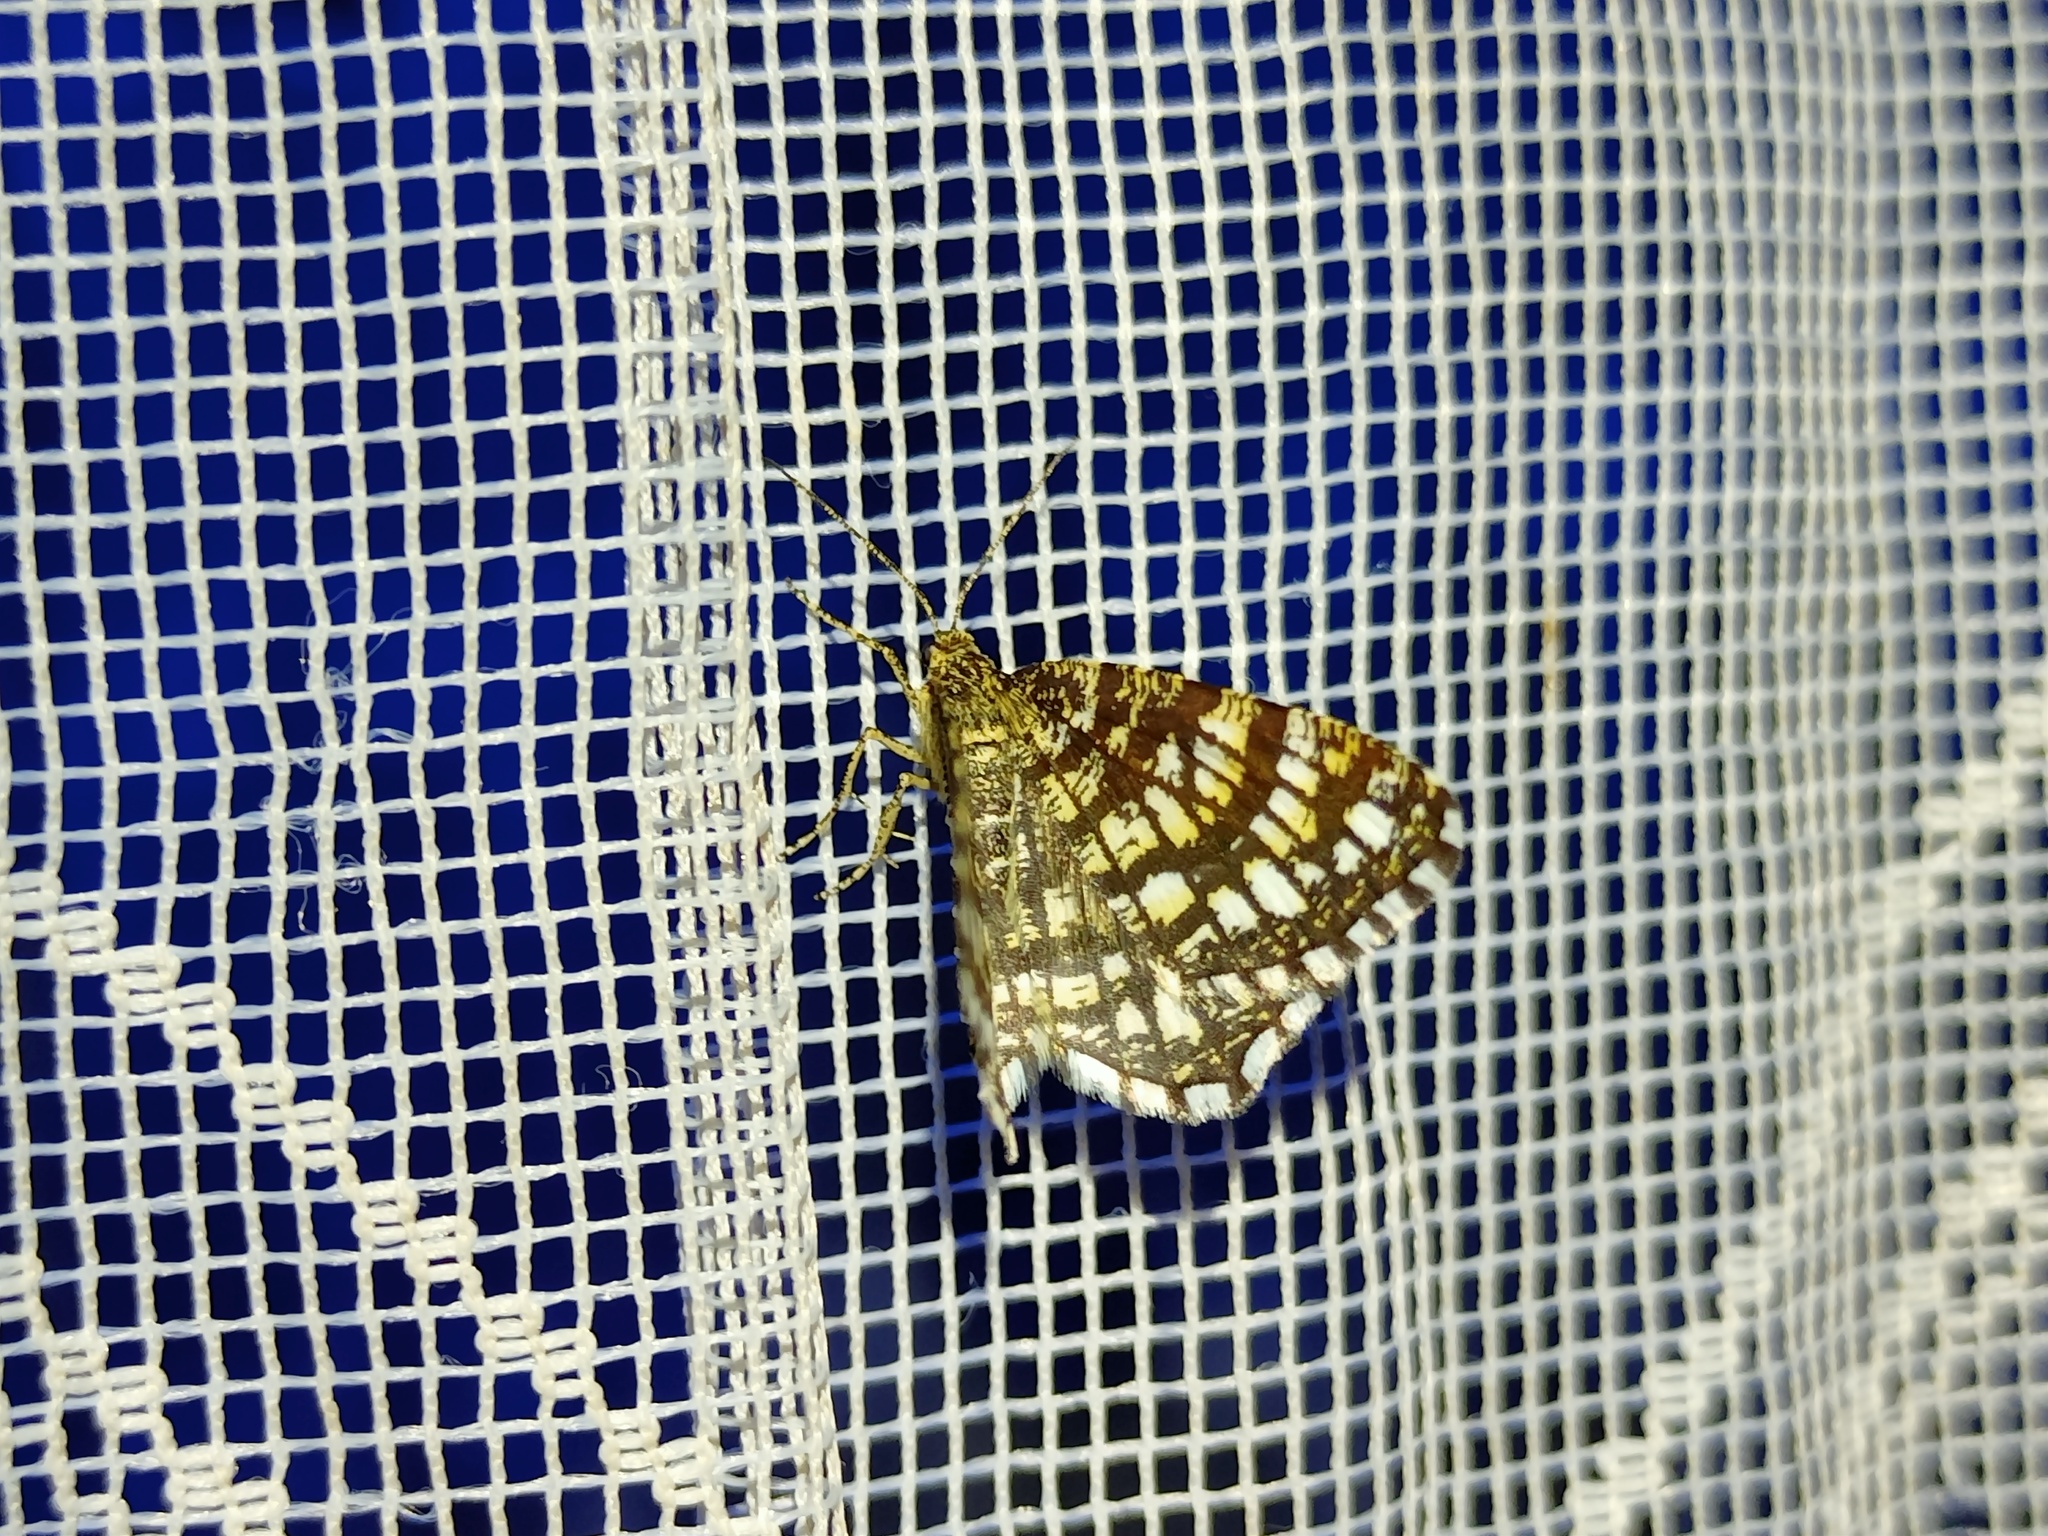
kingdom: Animalia
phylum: Arthropoda
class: Insecta
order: Lepidoptera
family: Geometridae
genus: Chiasmia
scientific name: Chiasmia clathrata
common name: Latticed heath
